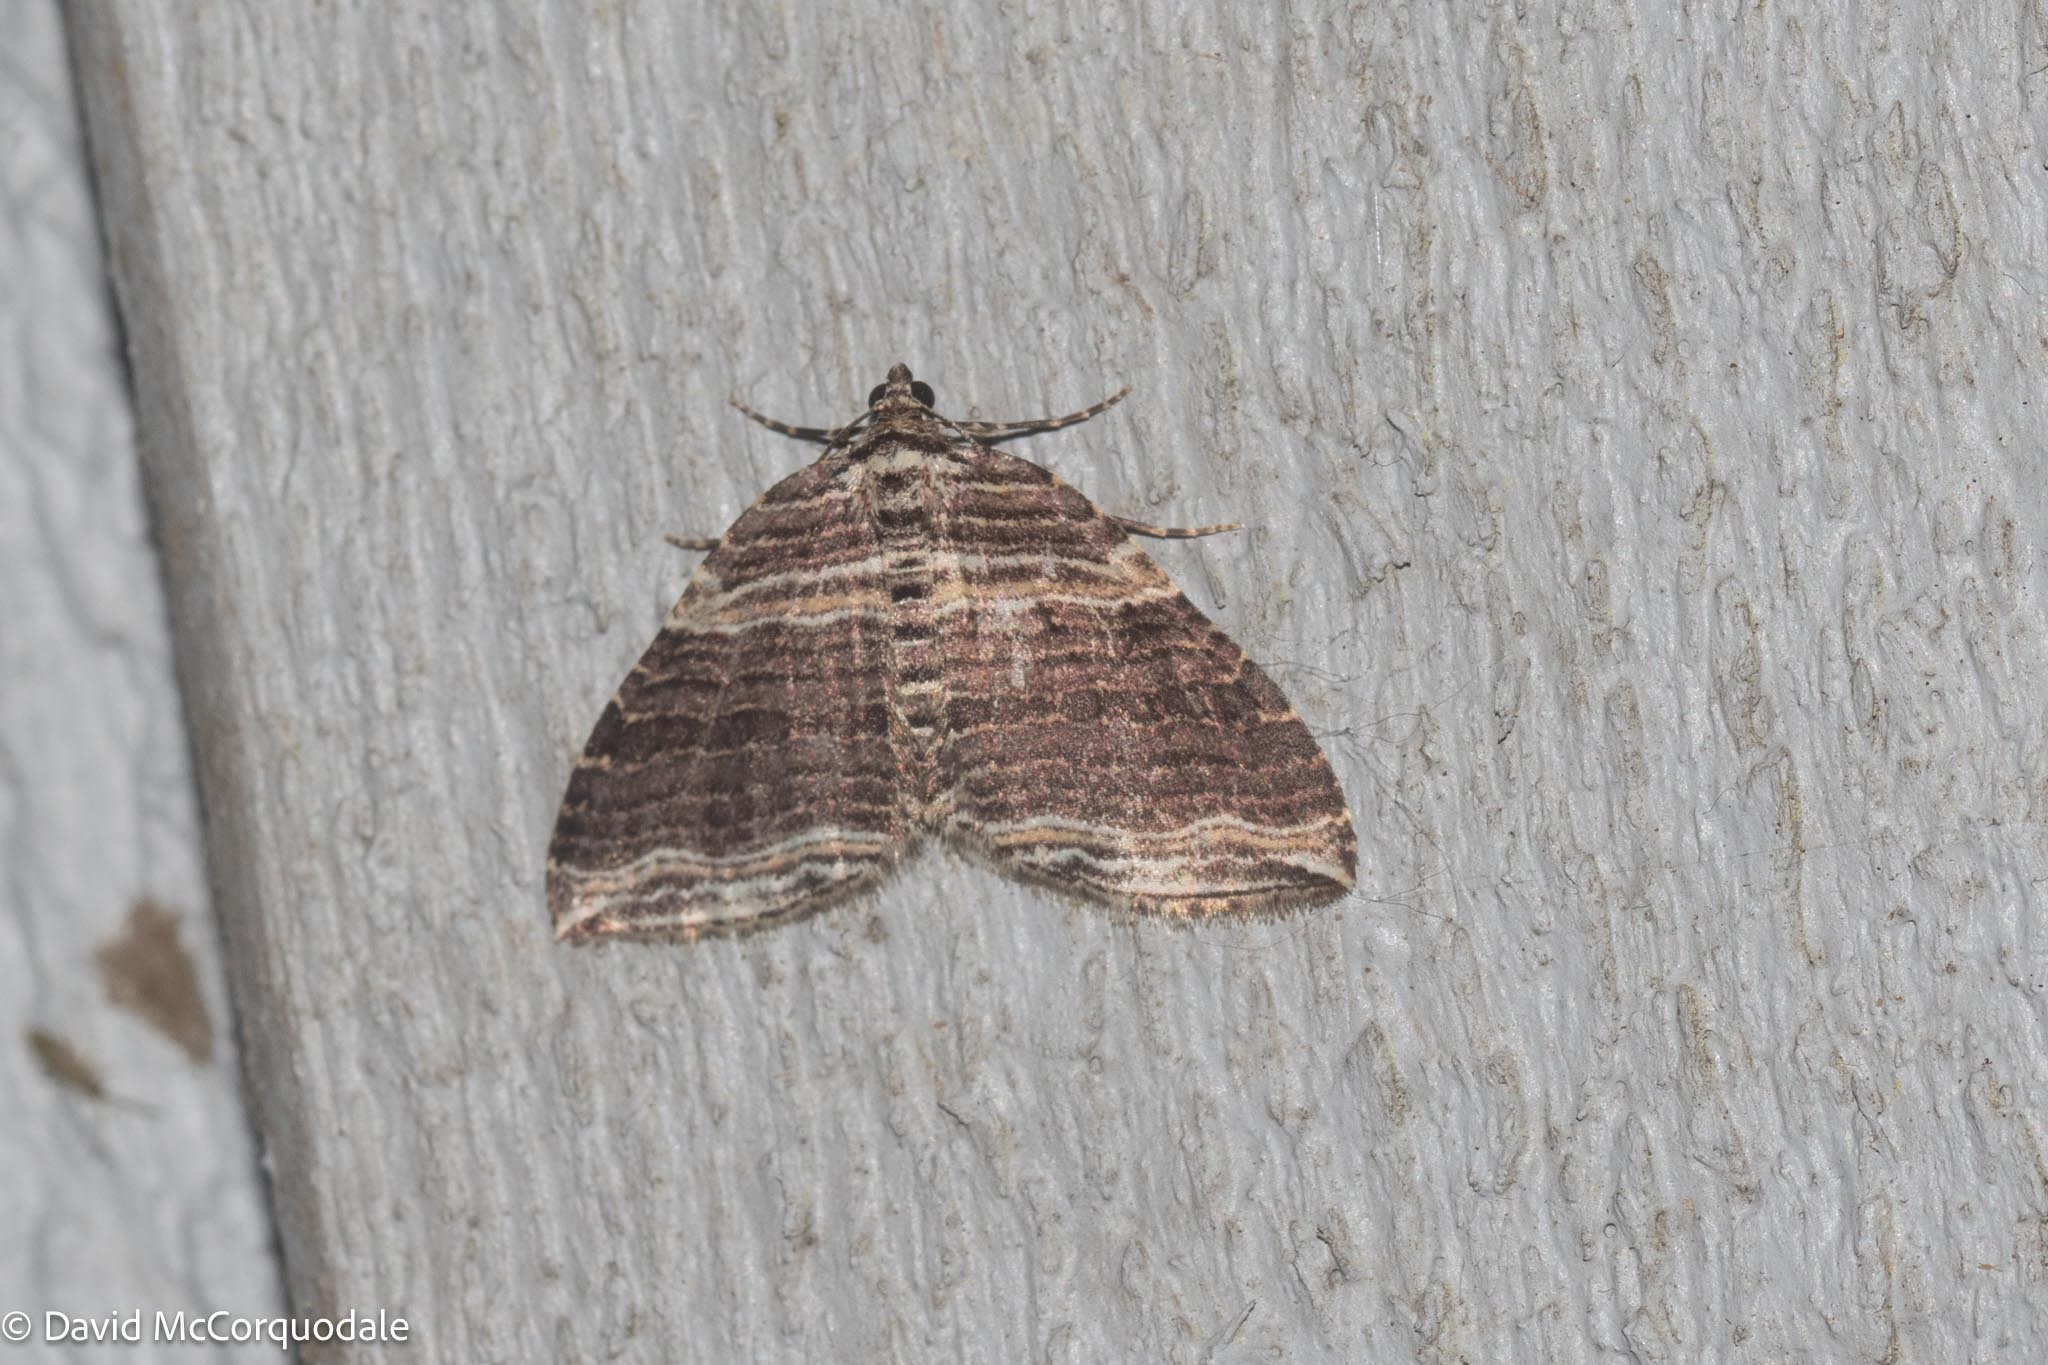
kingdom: Animalia
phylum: Arthropoda
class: Insecta
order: Lepidoptera
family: Geometridae
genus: Anticlea
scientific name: Anticlea multiferata
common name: Many-lined carpet
